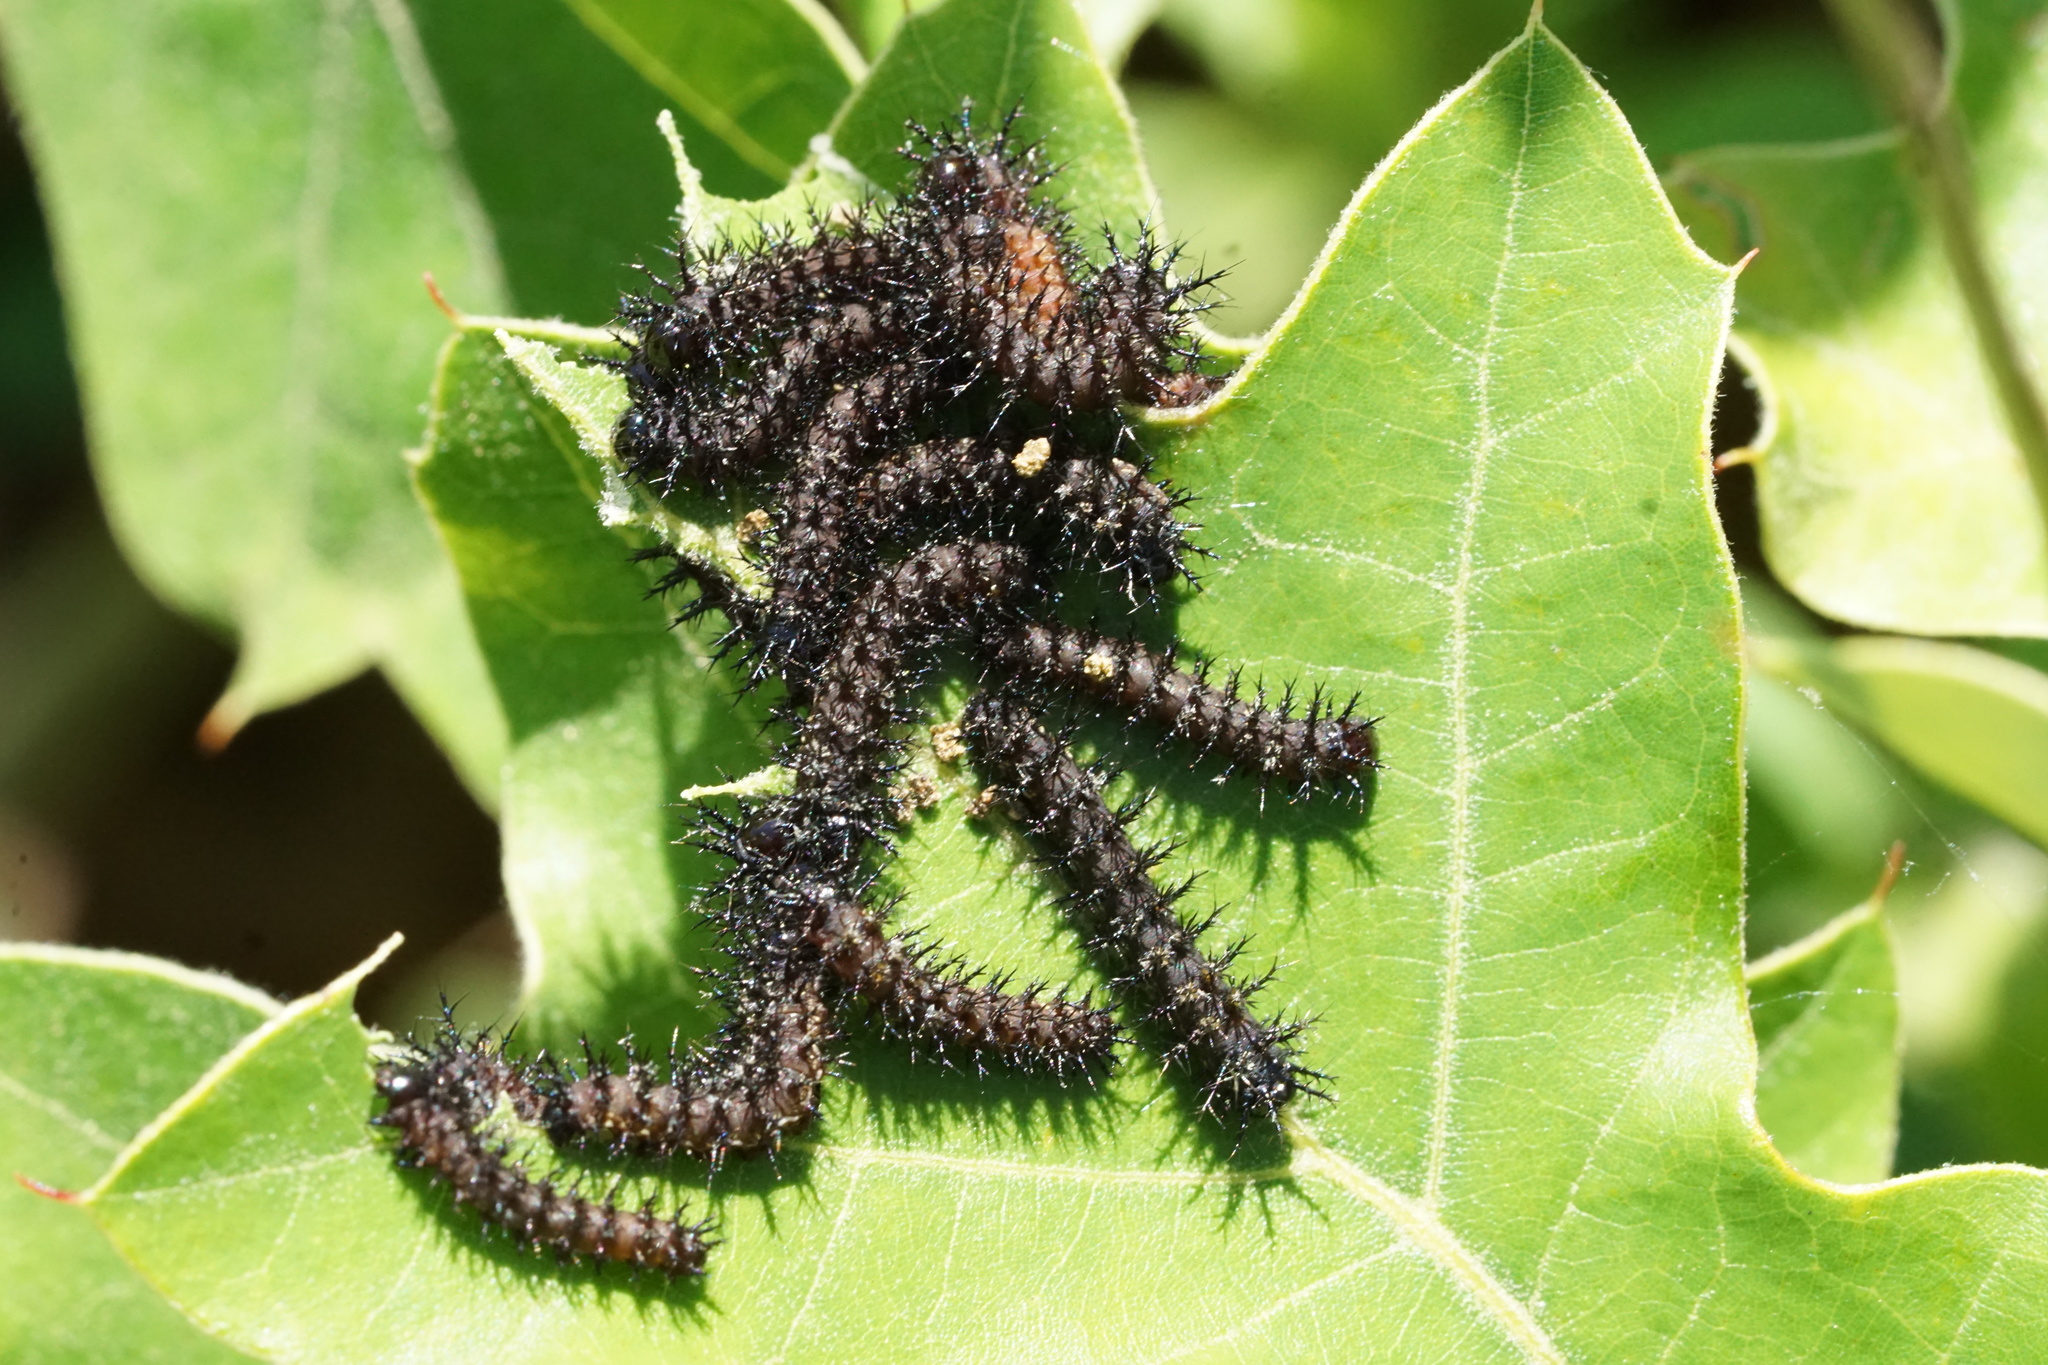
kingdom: Animalia
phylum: Arthropoda
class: Insecta
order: Lepidoptera
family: Saturniidae
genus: Hemileuca
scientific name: Hemileuca maia
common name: Eastern buckmoth
